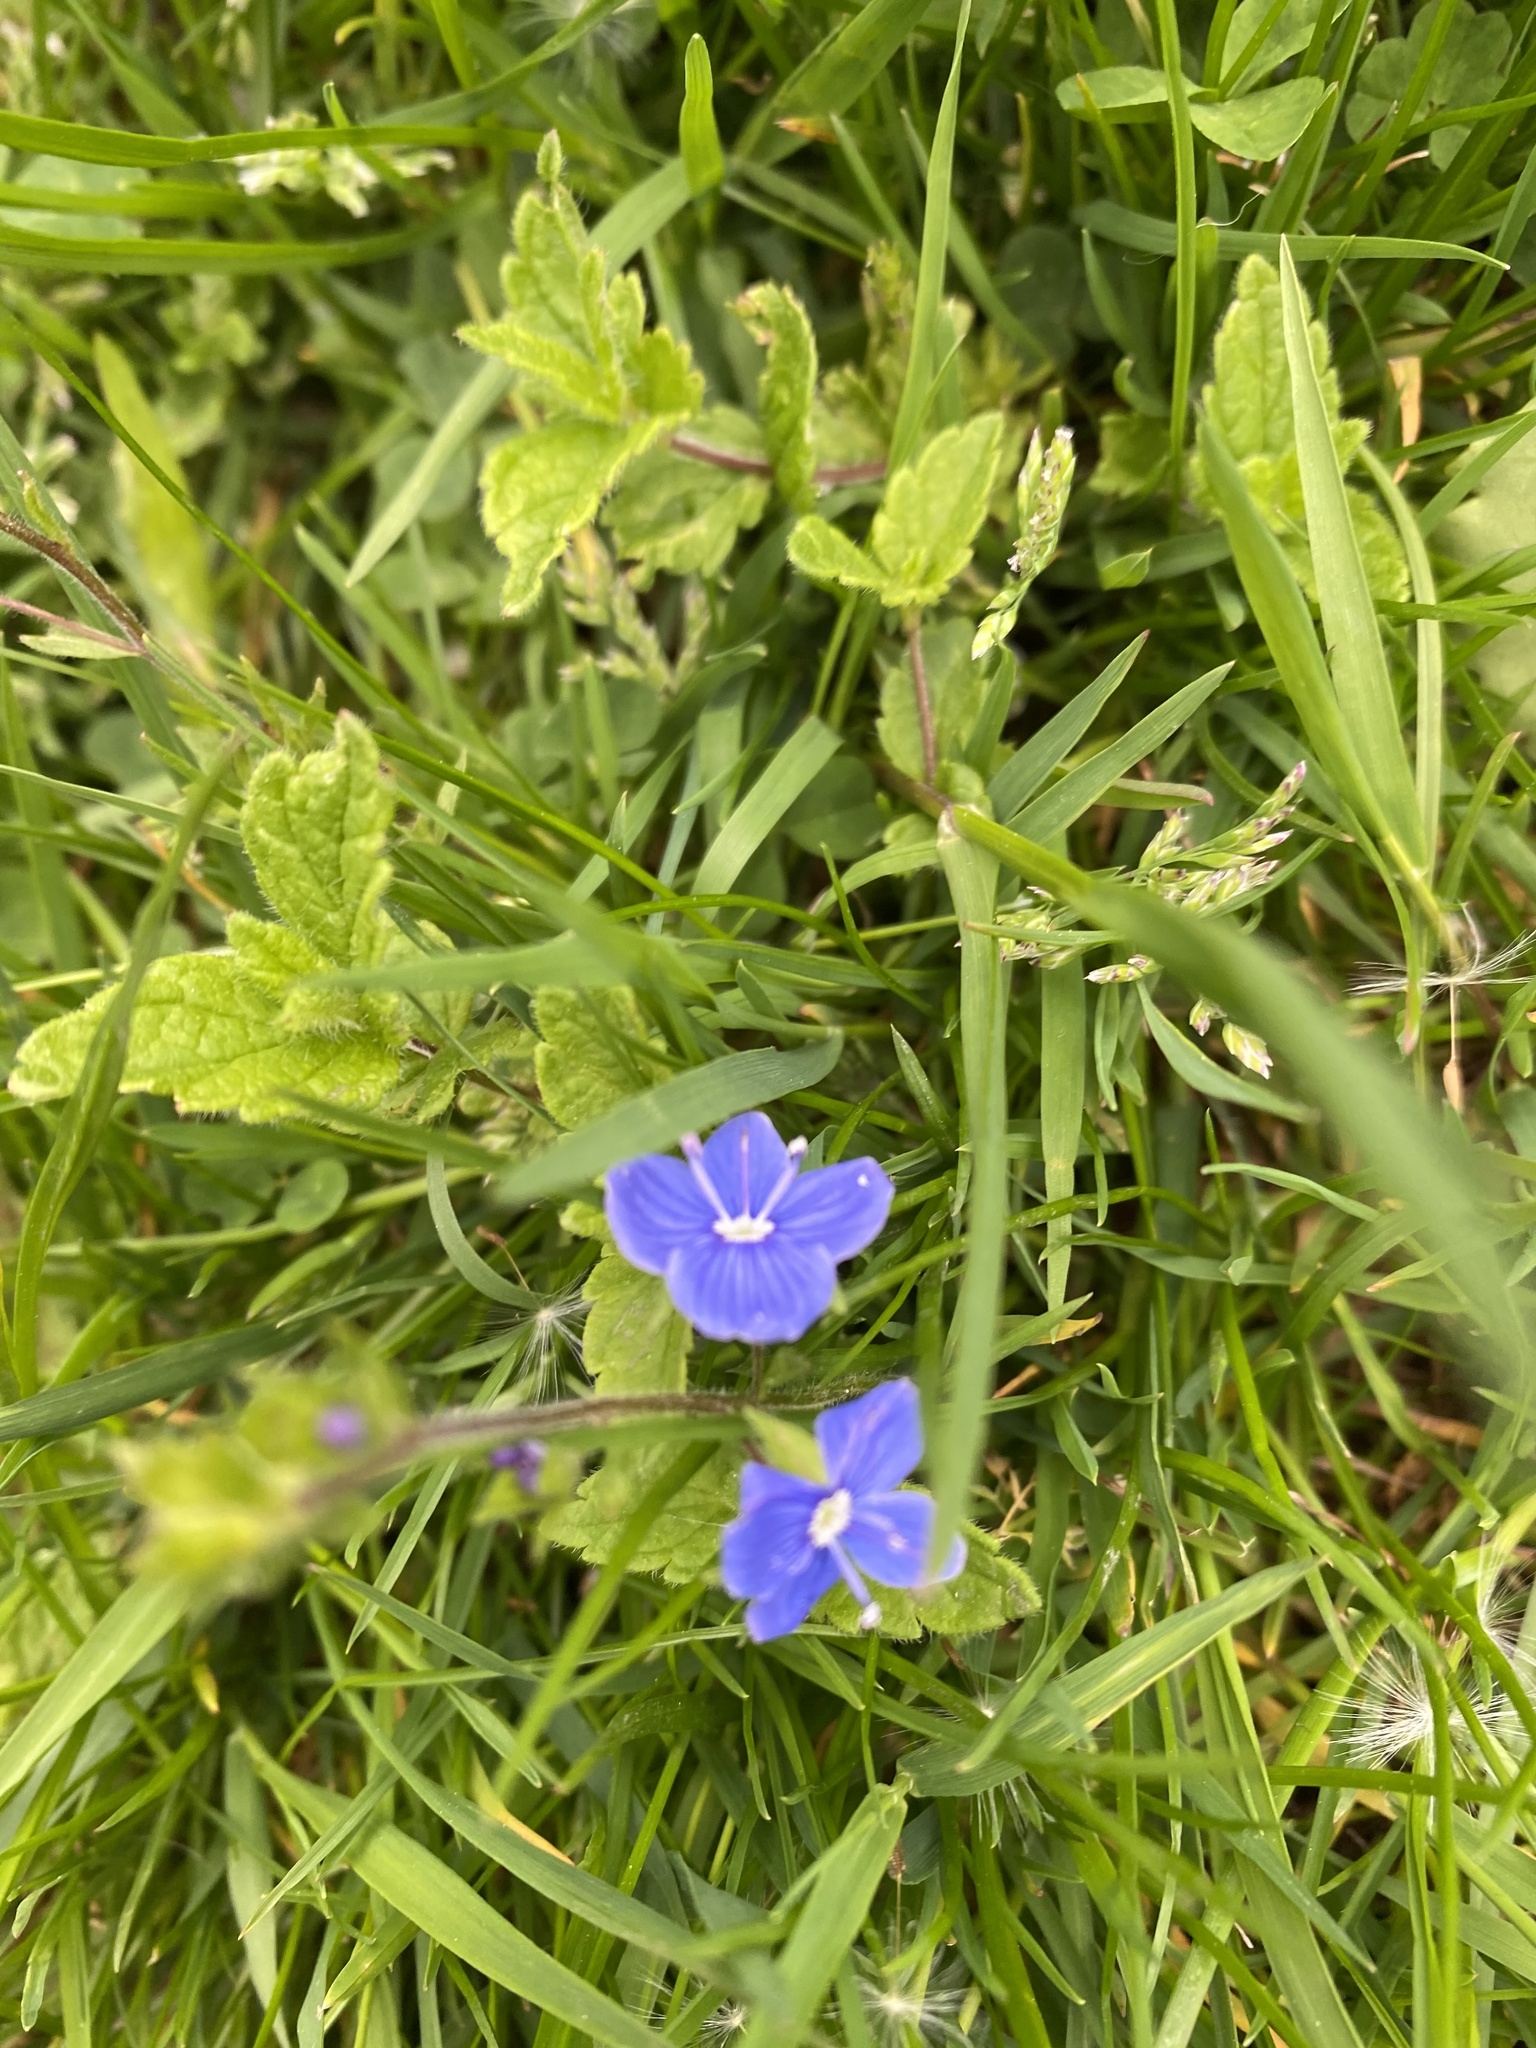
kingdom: Plantae
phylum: Tracheophyta
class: Magnoliopsida
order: Lamiales
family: Plantaginaceae
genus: Veronica
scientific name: Veronica chamaedrys
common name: Germander speedwell
